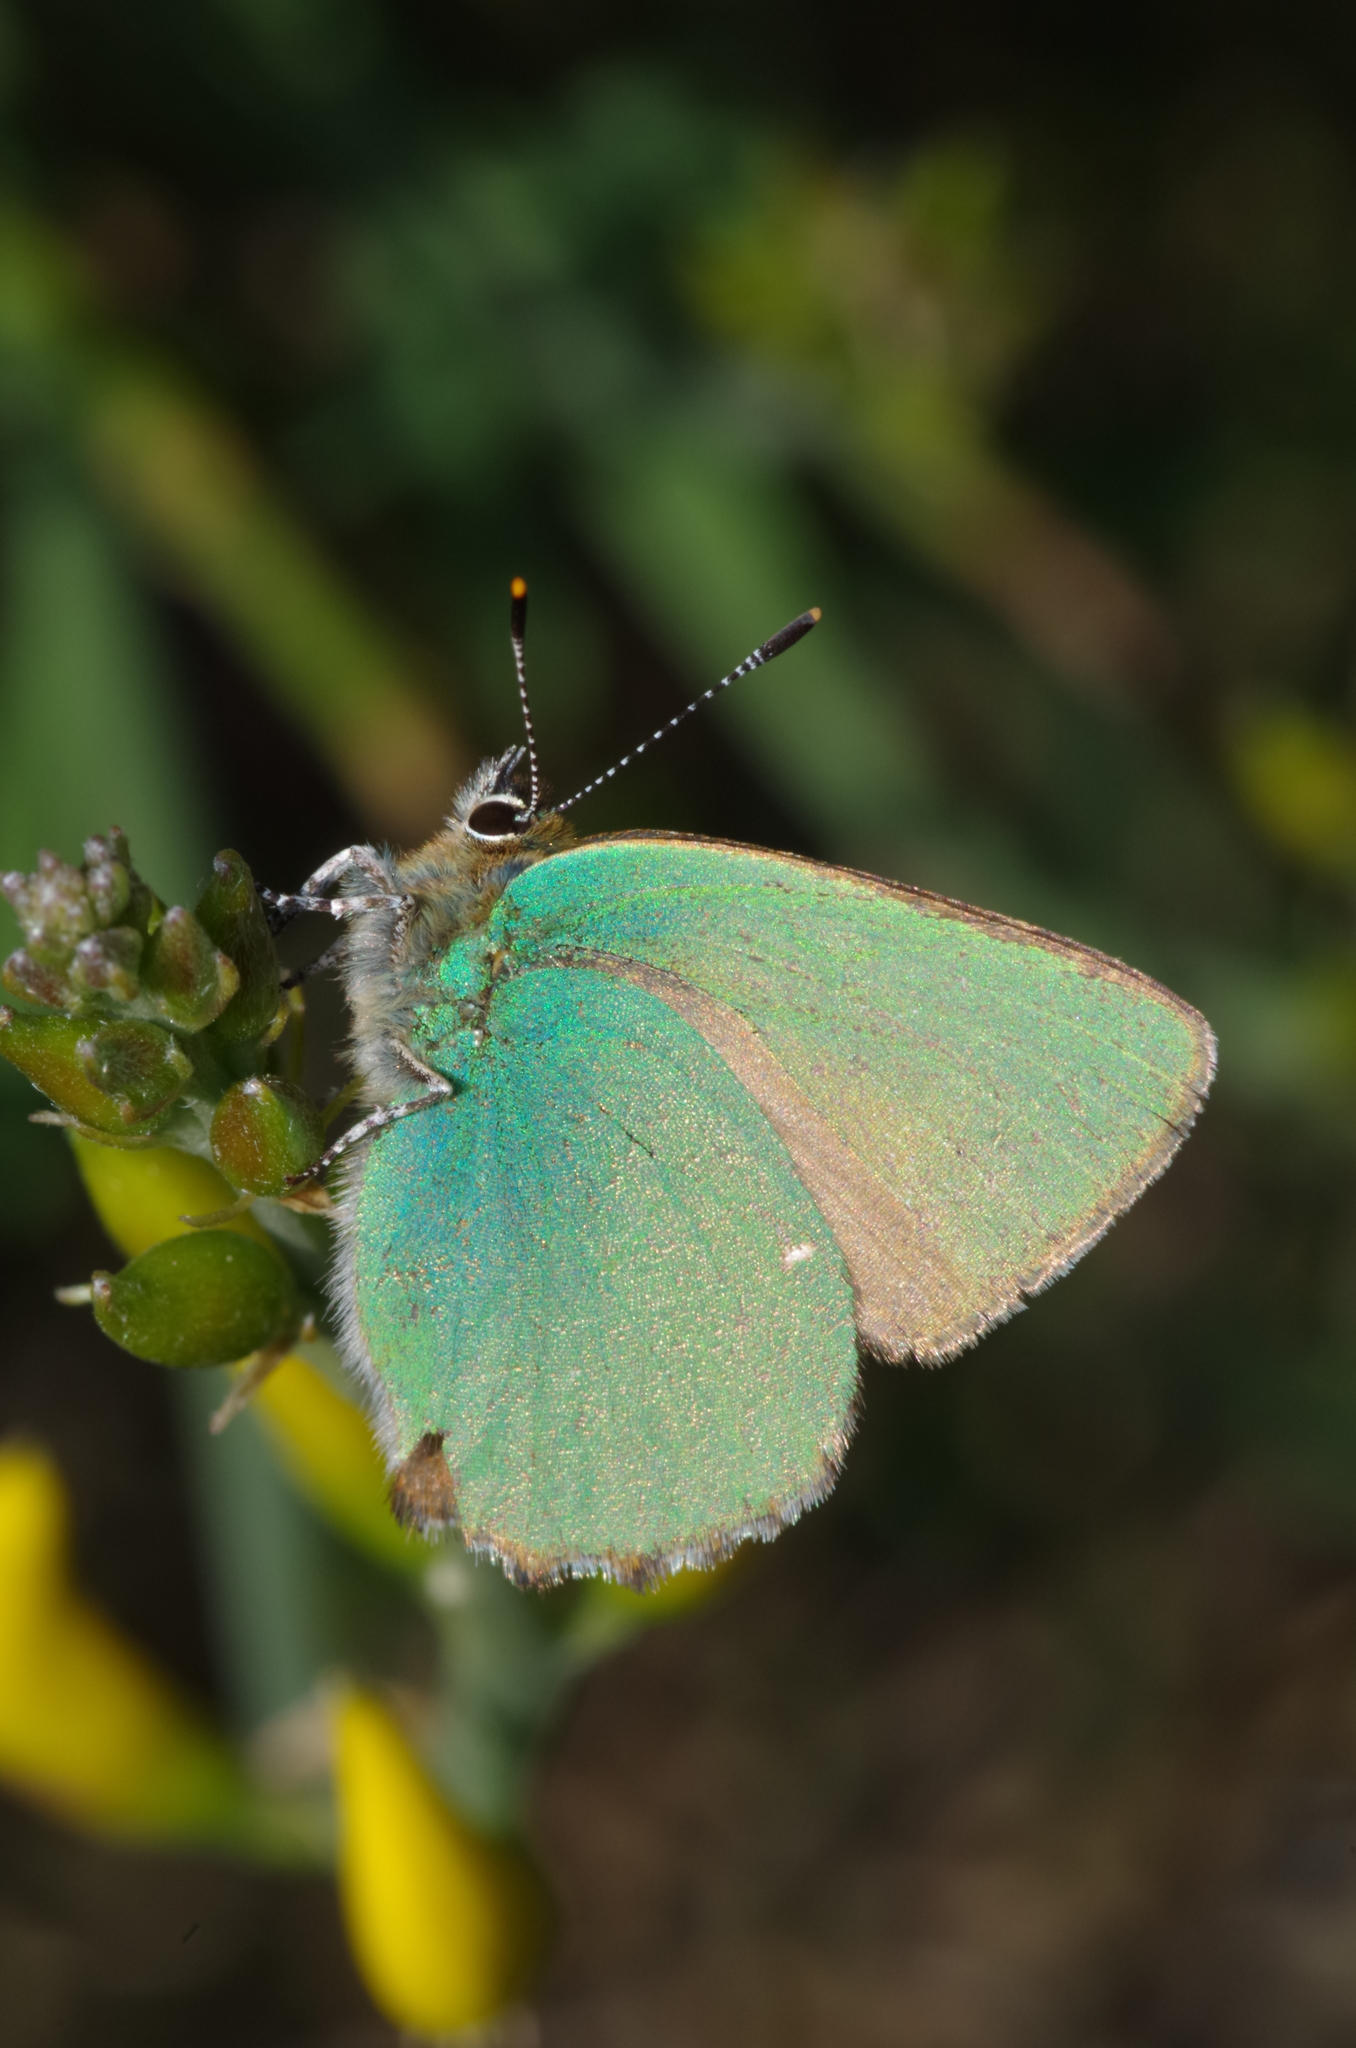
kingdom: Animalia
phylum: Arthropoda
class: Insecta
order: Lepidoptera
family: Lycaenidae
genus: Callophrys
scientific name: Callophrys rubi
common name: Green hairstreak
